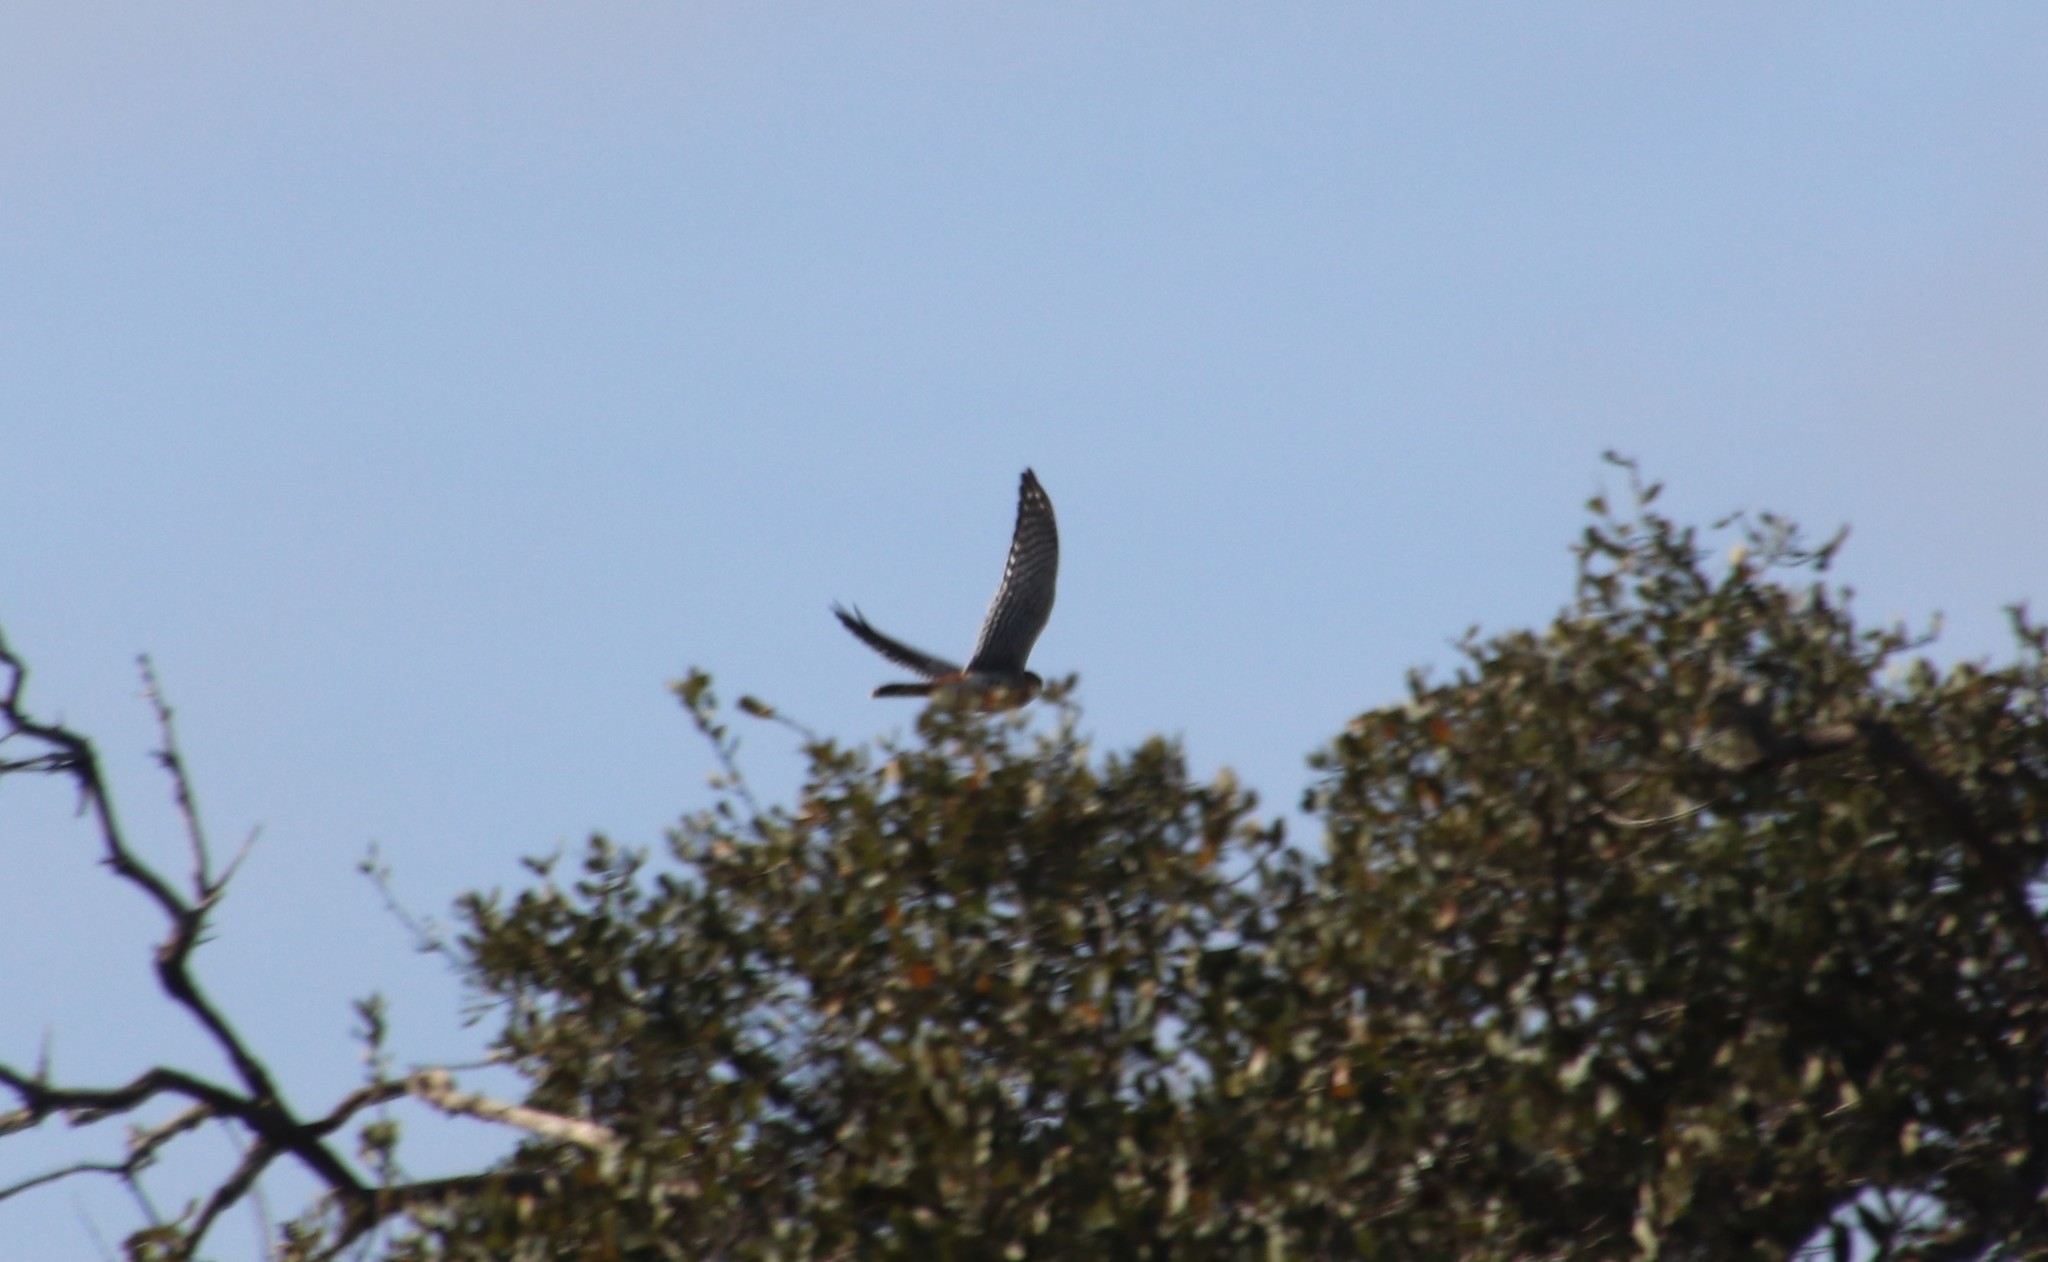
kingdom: Animalia
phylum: Chordata
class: Aves
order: Falconiformes
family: Falconidae
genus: Falco
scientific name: Falco sparverius
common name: American kestrel
